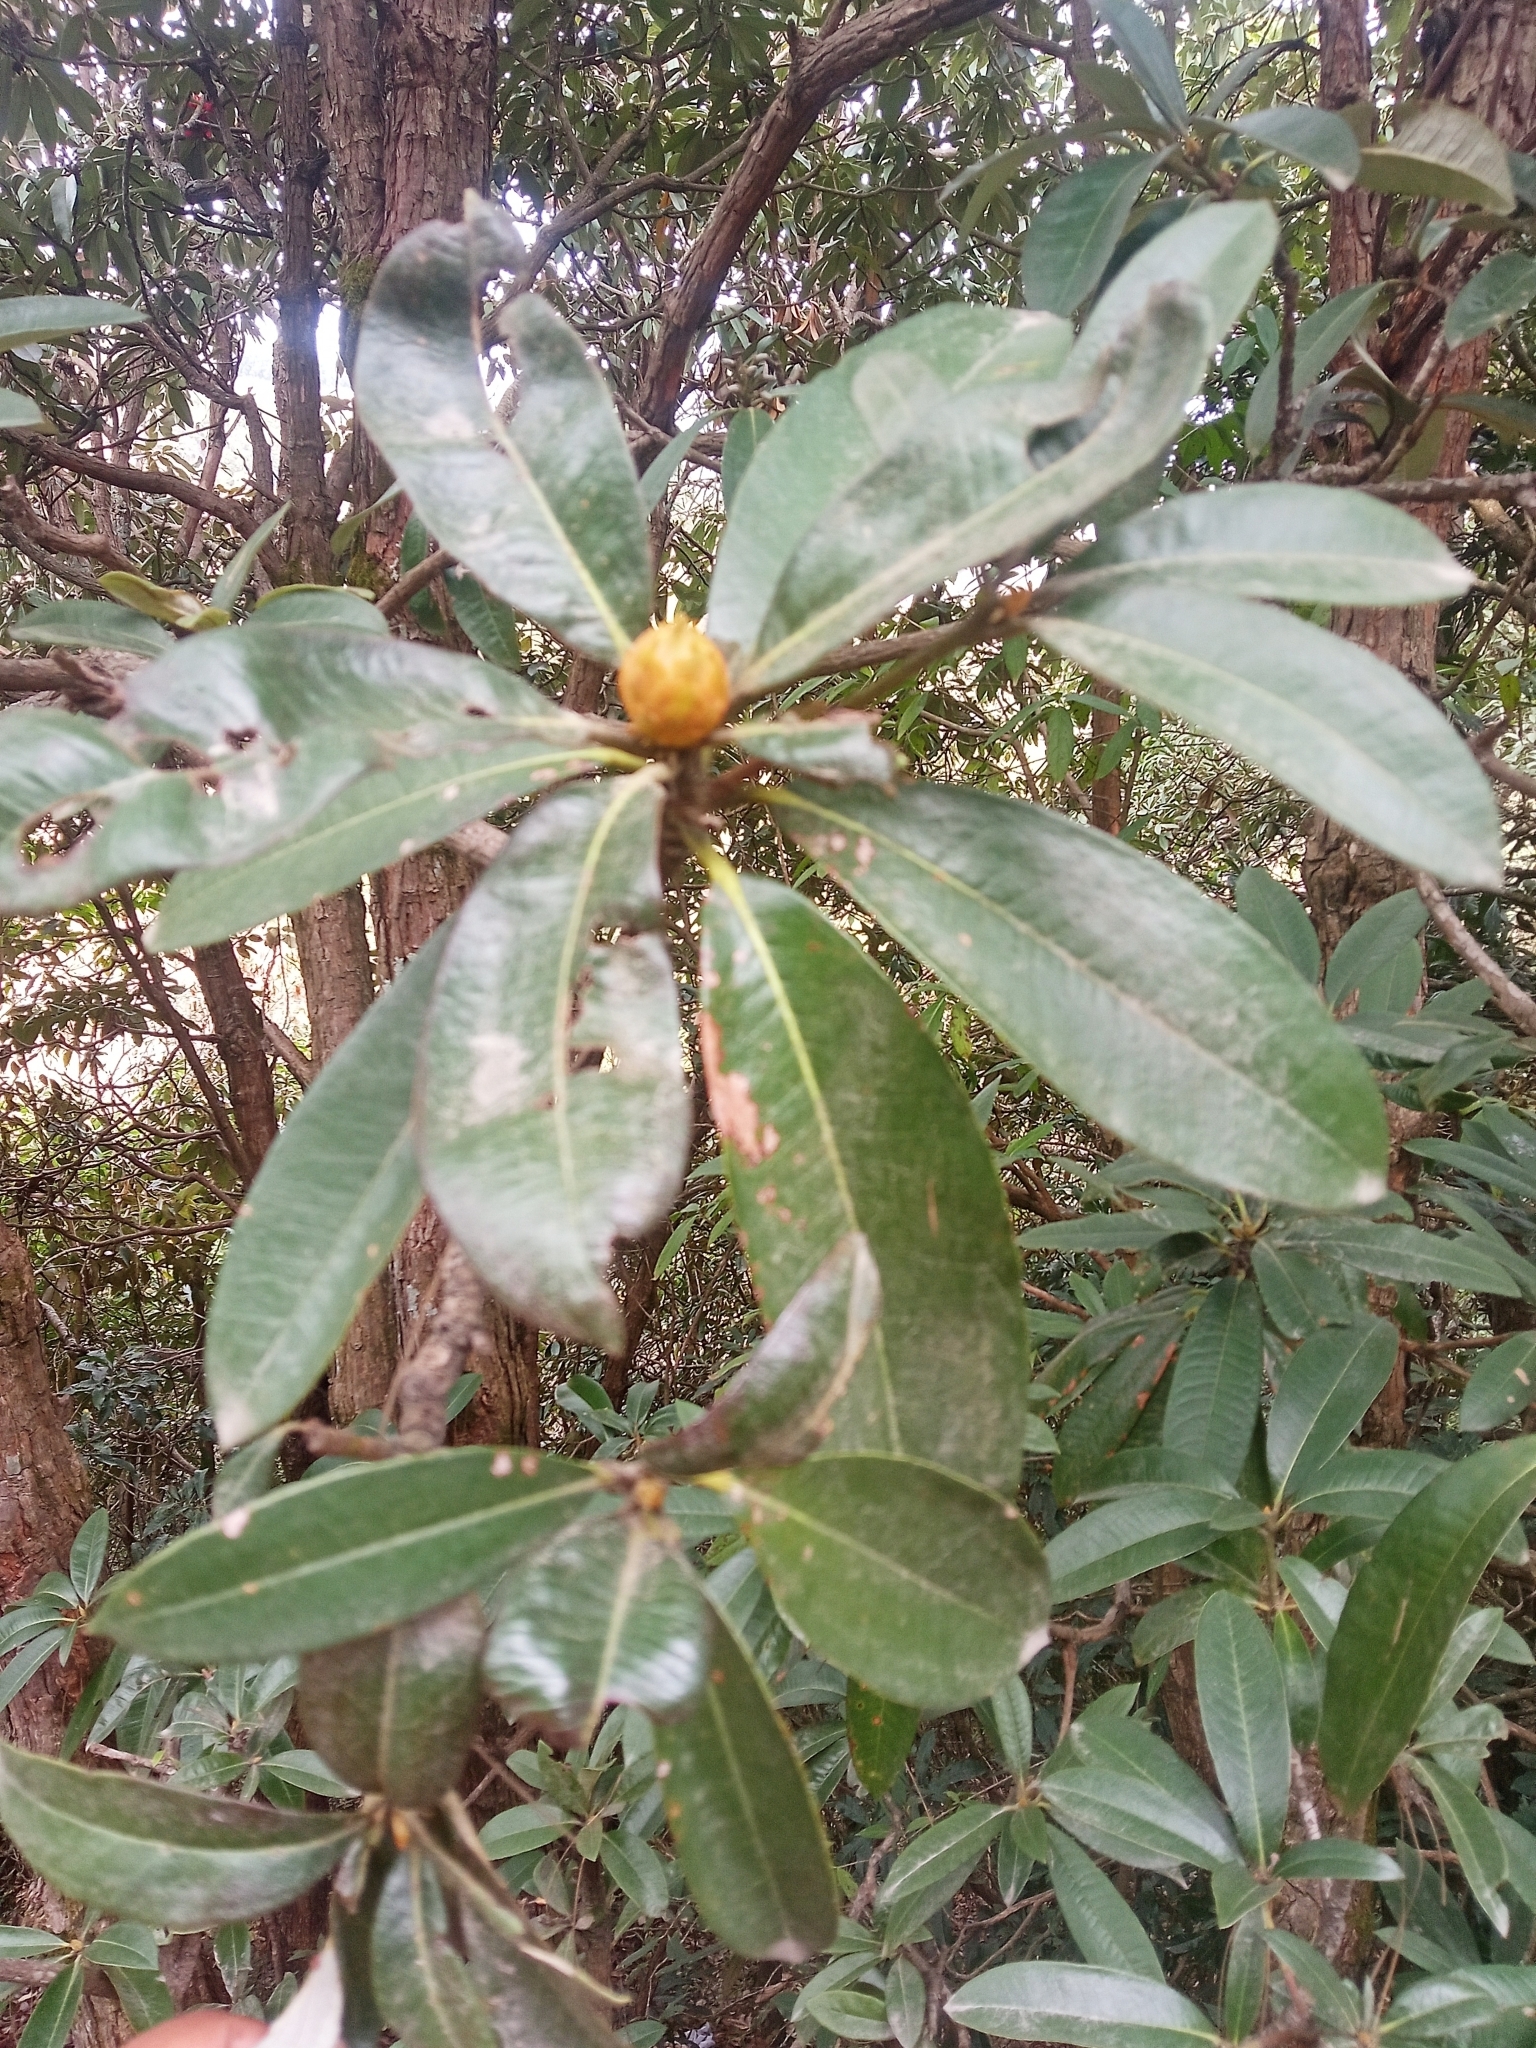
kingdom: Plantae
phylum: Tracheophyta
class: Magnoliopsida
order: Ericales
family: Ericaceae
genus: Rhododendron
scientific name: Rhododendron arboreum
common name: Tree rhododendron
